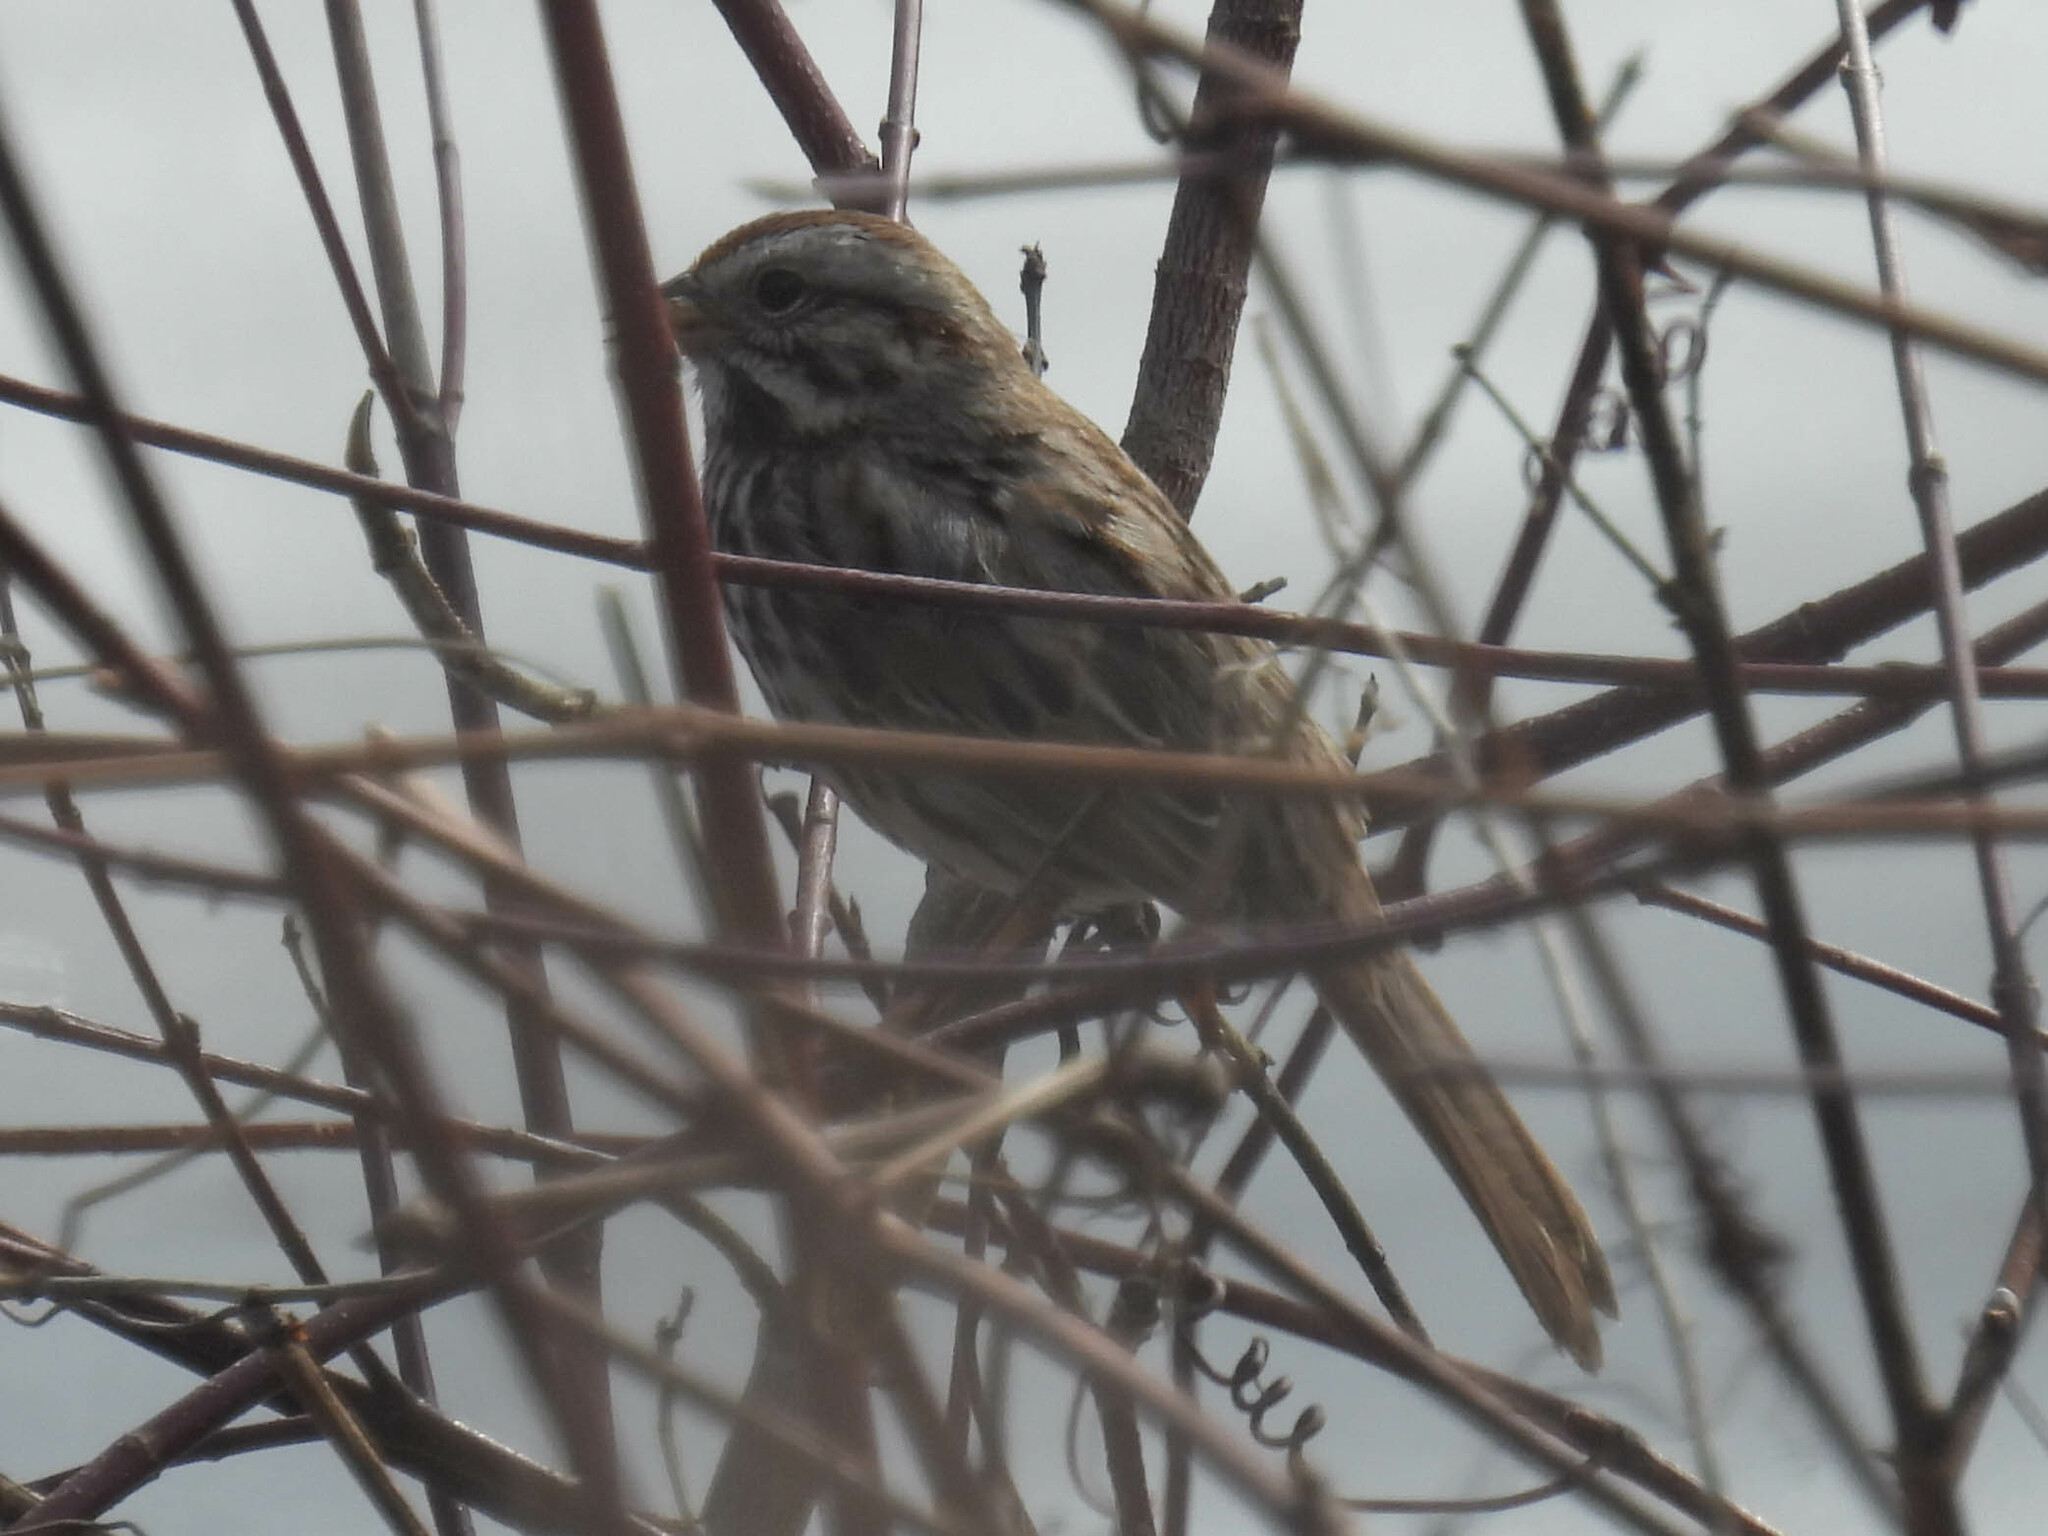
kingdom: Animalia
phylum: Chordata
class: Aves
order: Passeriformes
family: Passerellidae
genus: Melospiza
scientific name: Melospiza melodia
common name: Song sparrow
